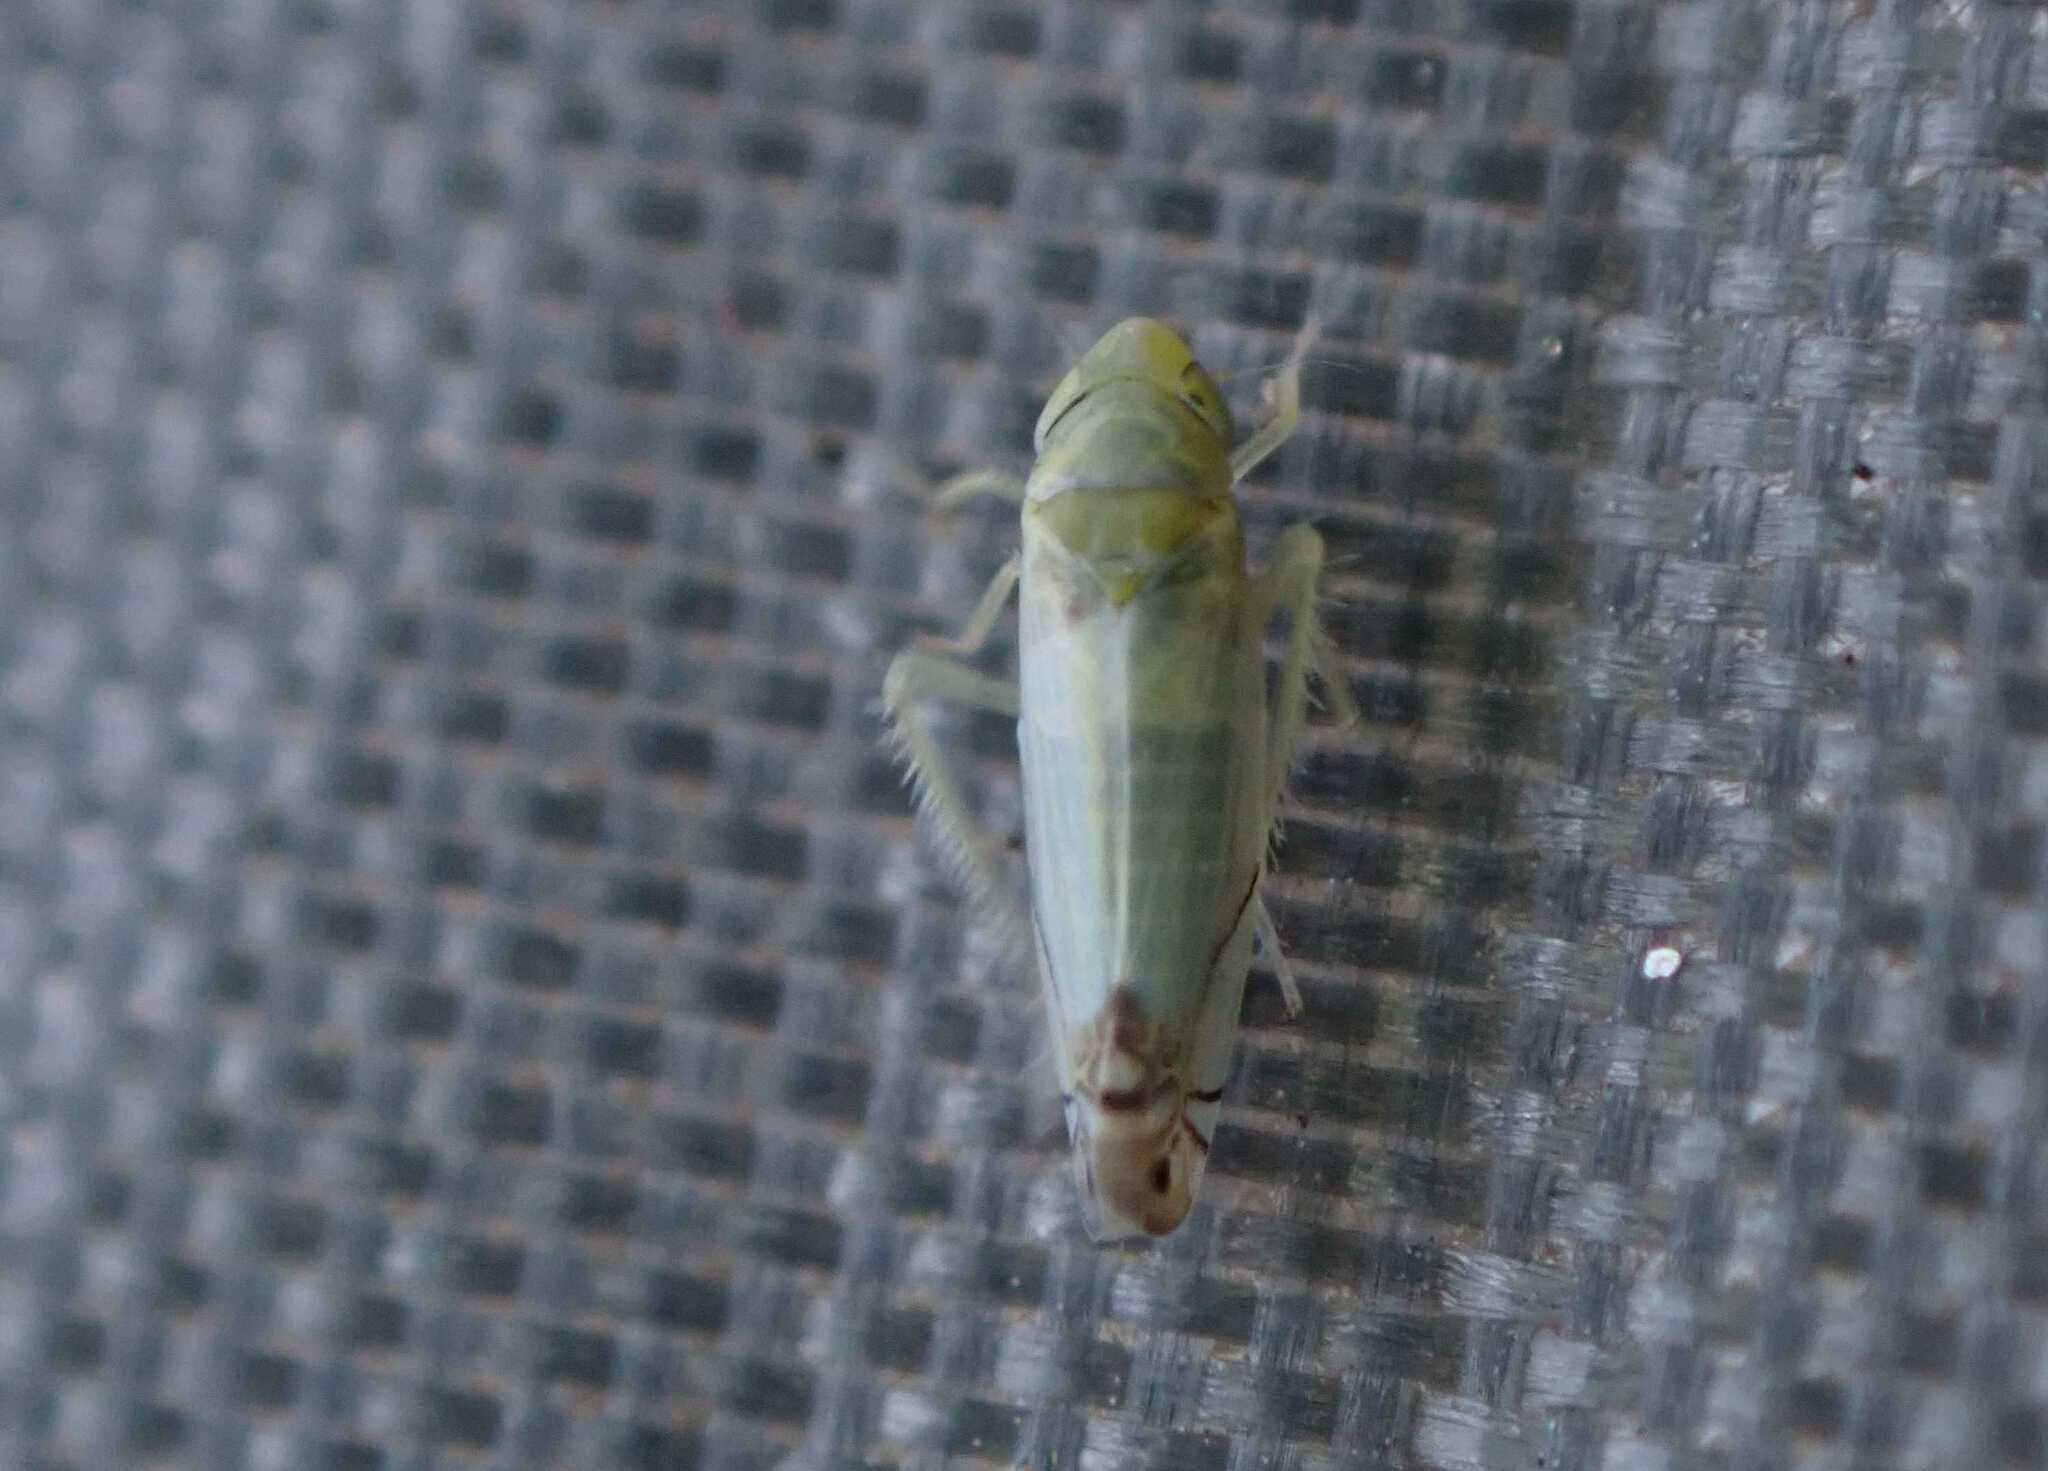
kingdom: Animalia
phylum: Arthropoda
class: Insecta
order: Hemiptera
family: Cicadellidae
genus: Zyginella
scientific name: Zyginella pulchra
